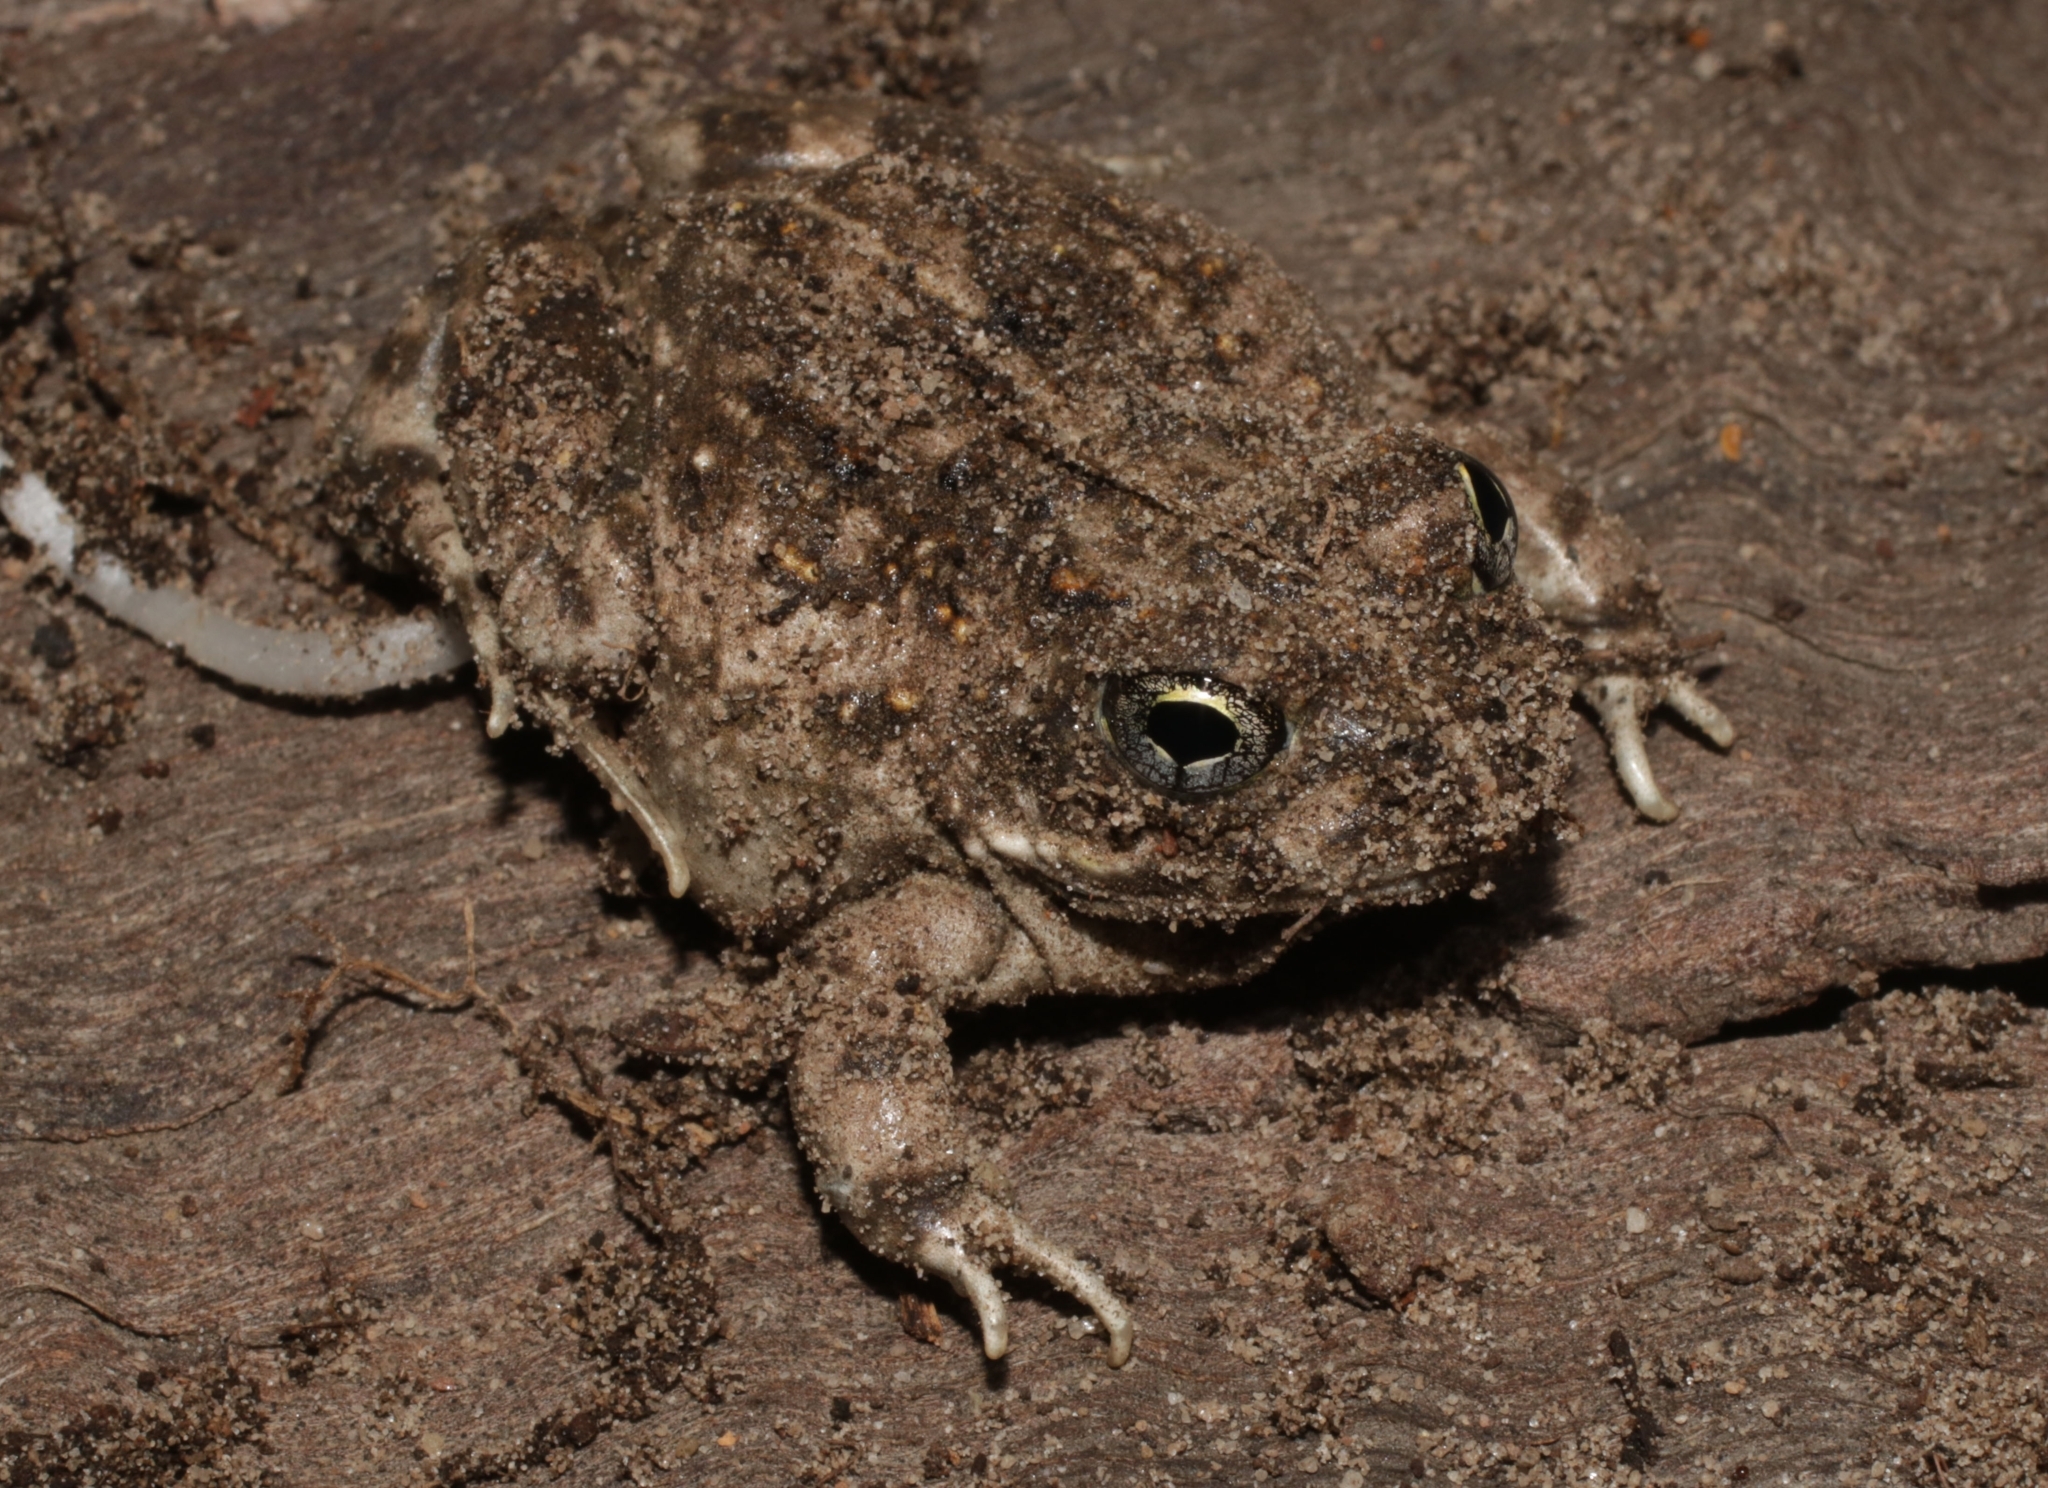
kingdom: Animalia
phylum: Chordata
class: Amphibia
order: Anura
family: Pyxicephalidae
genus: Tomopterna
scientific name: Tomopterna delalandii
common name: Delalande's burrowing bullfrog
